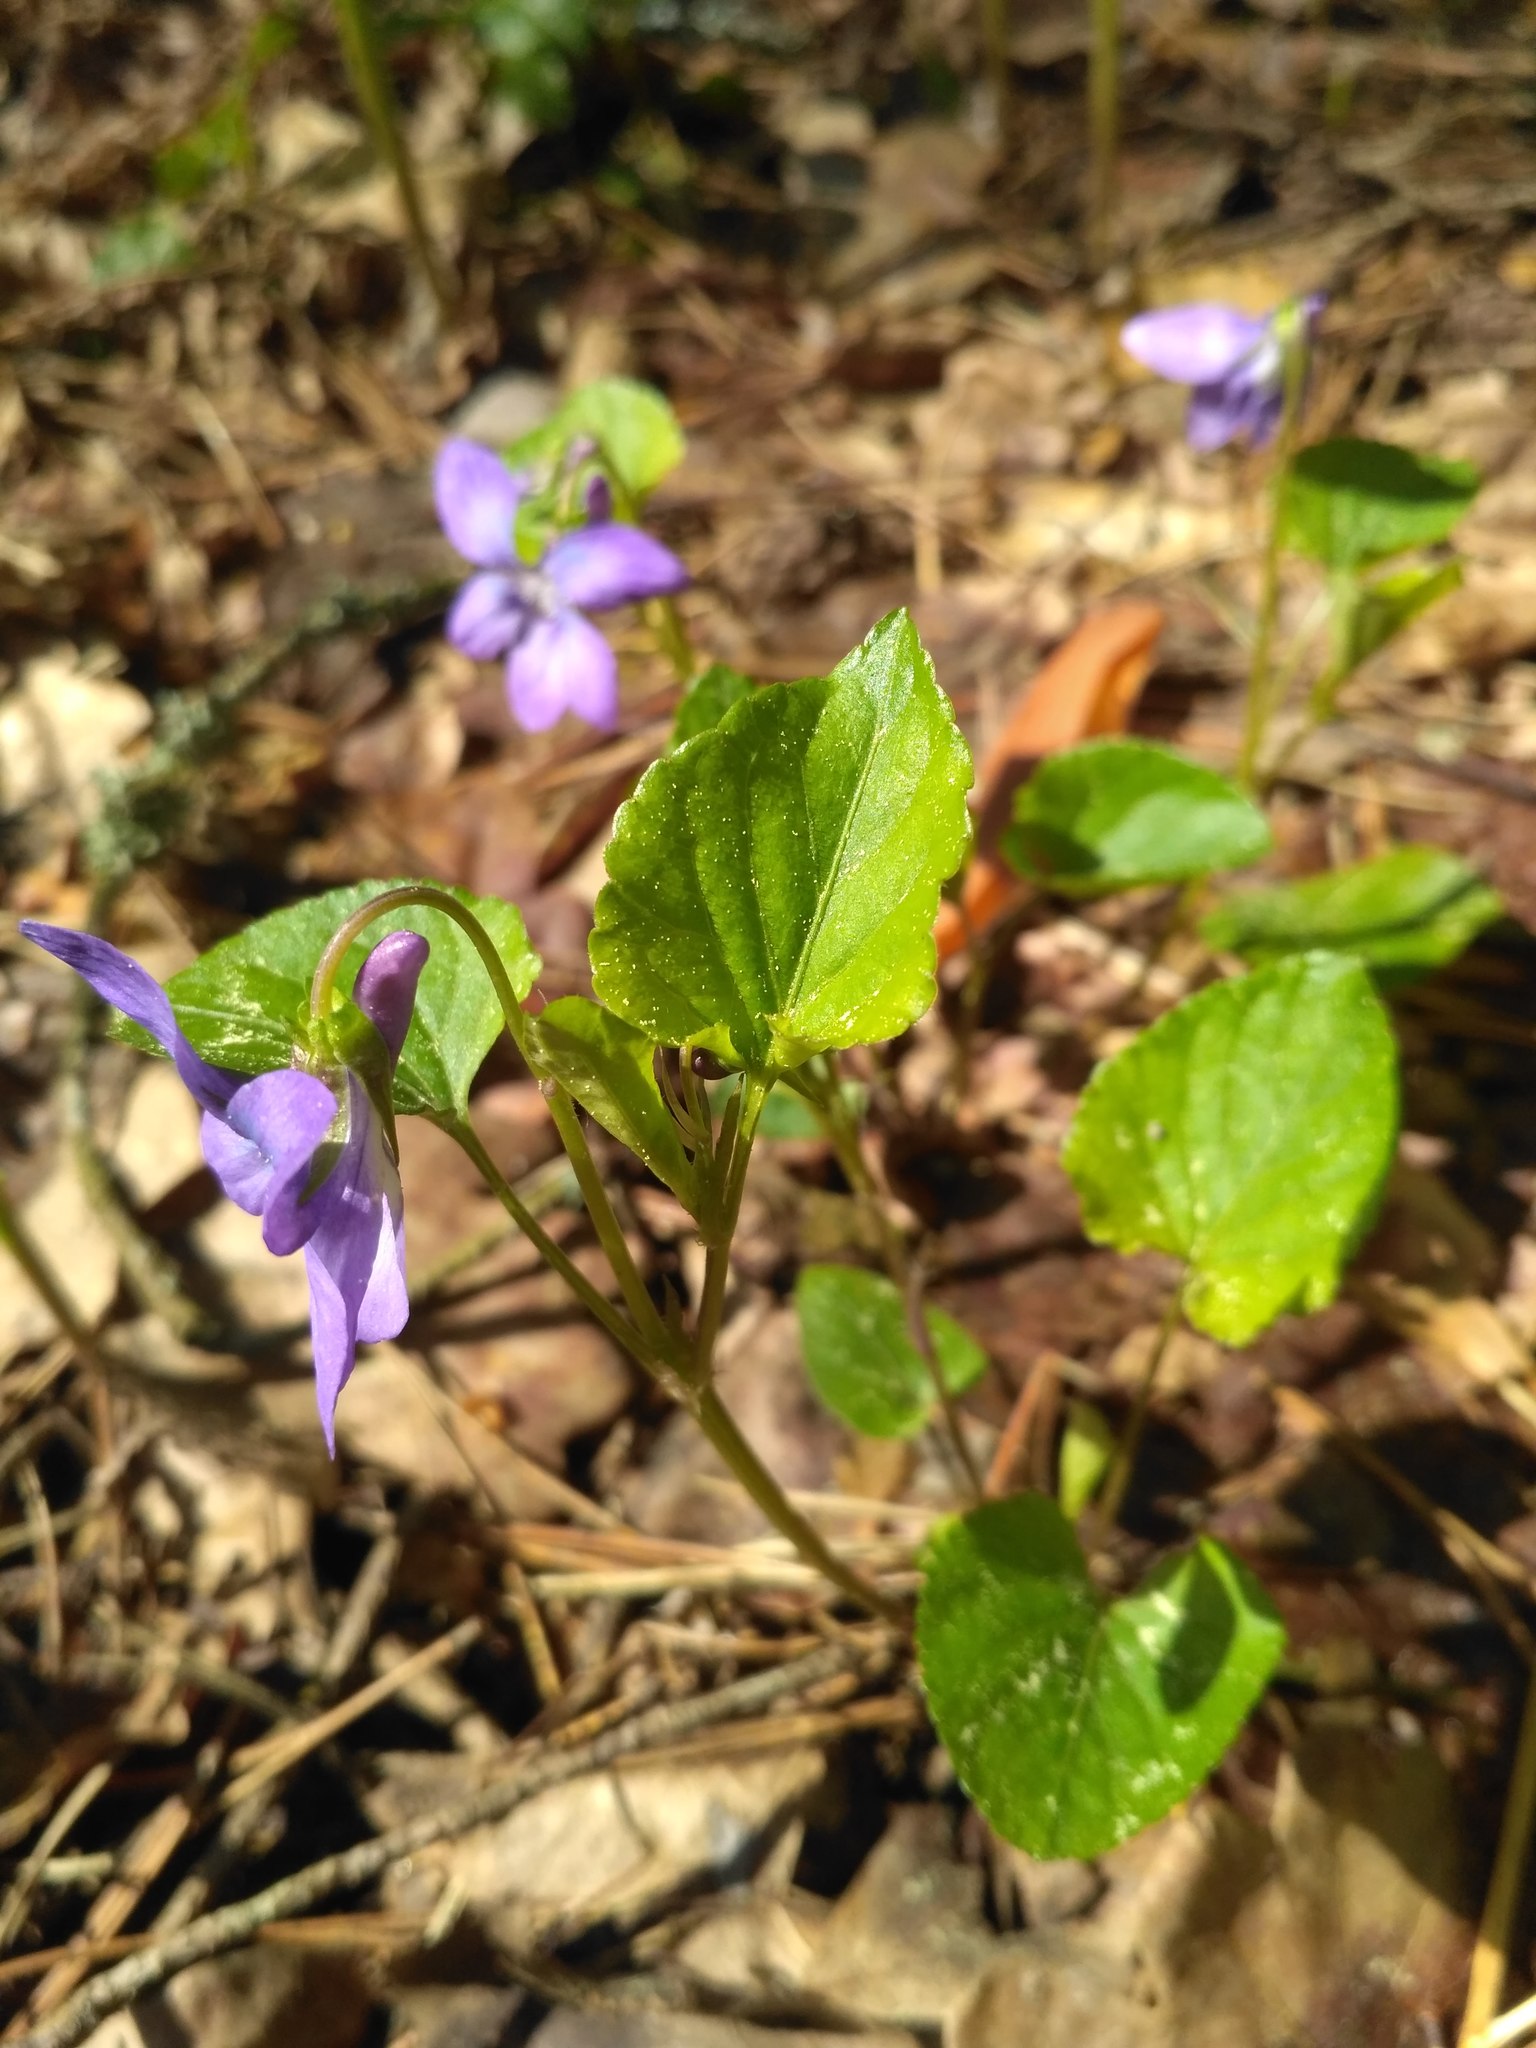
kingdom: Plantae
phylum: Tracheophyta
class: Magnoliopsida
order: Malpighiales
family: Violaceae
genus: Viola
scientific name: Viola riviniana
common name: Common dog-violet
